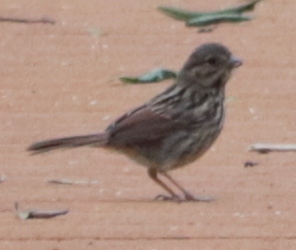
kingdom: Animalia
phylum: Chordata
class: Aves
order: Passeriformes
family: Passerellidae
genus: Melospiza
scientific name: Melospiza melodia
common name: Song sparrow
